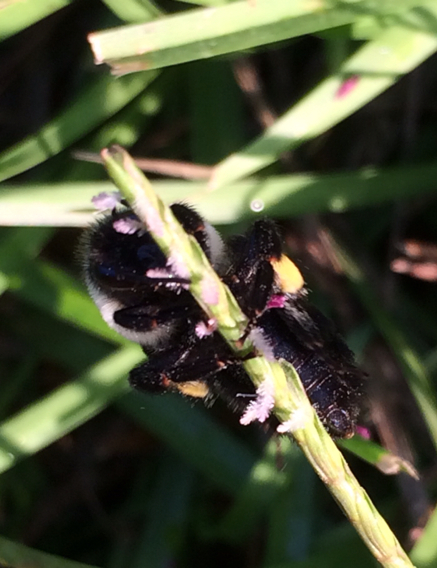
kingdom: Animalia
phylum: Arthropoda
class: Insecta
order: Hymenoptera
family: Apidae
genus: Bombus
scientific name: Bombus impatiens
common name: Common eastern bumble bee
